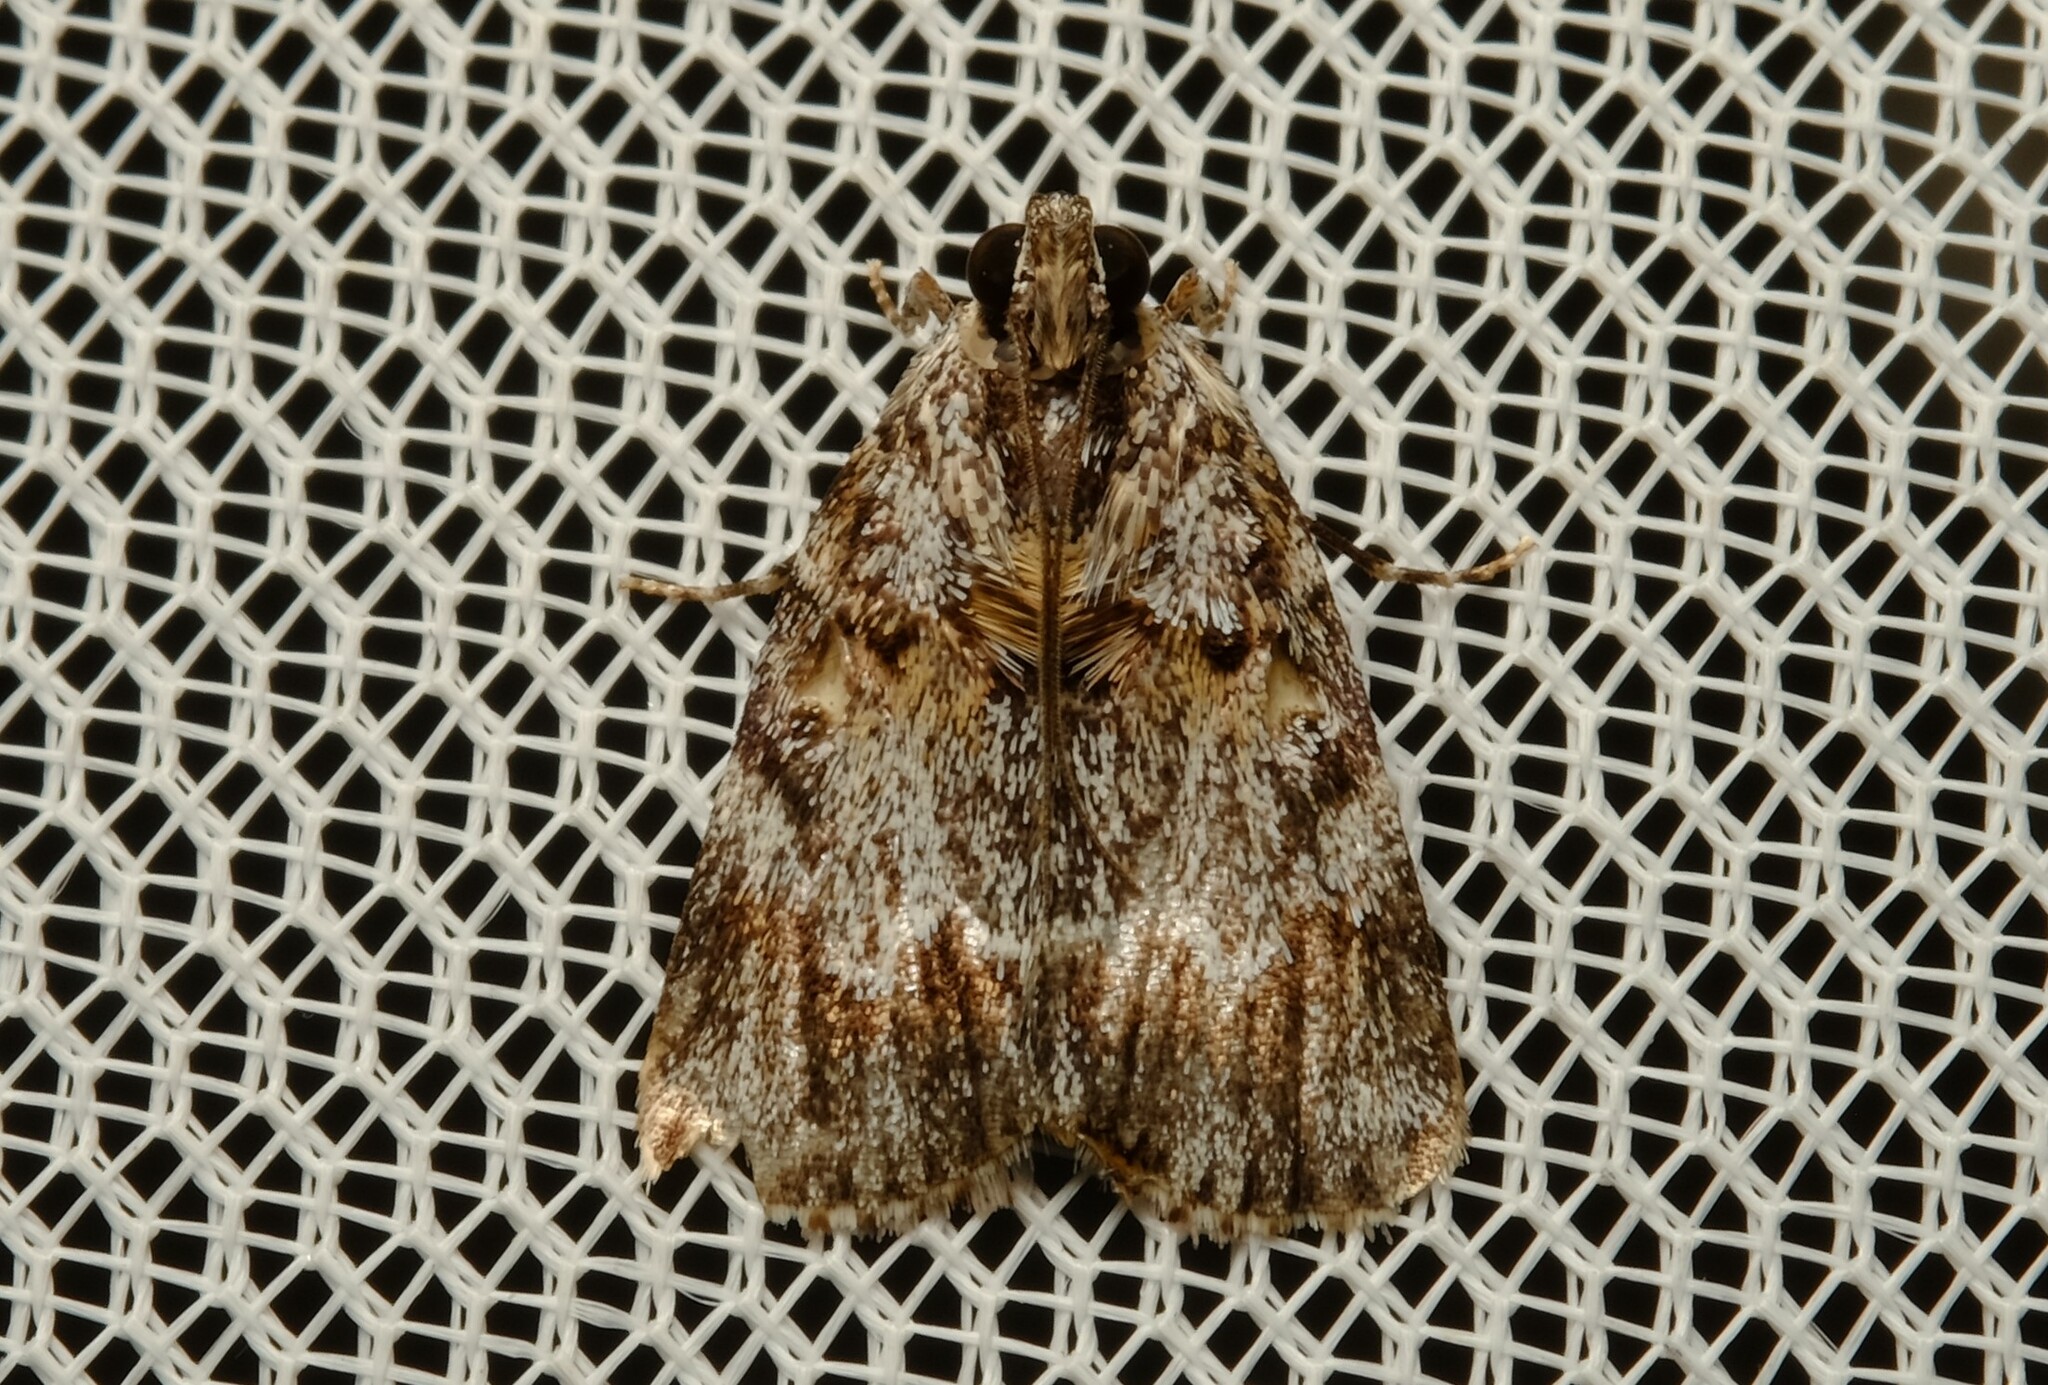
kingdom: Animalia
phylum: Arthropoda
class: Insecta
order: Lepidoptera
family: Pyralidae
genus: Spectrotrota
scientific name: Spectrotrota fimbrialis
